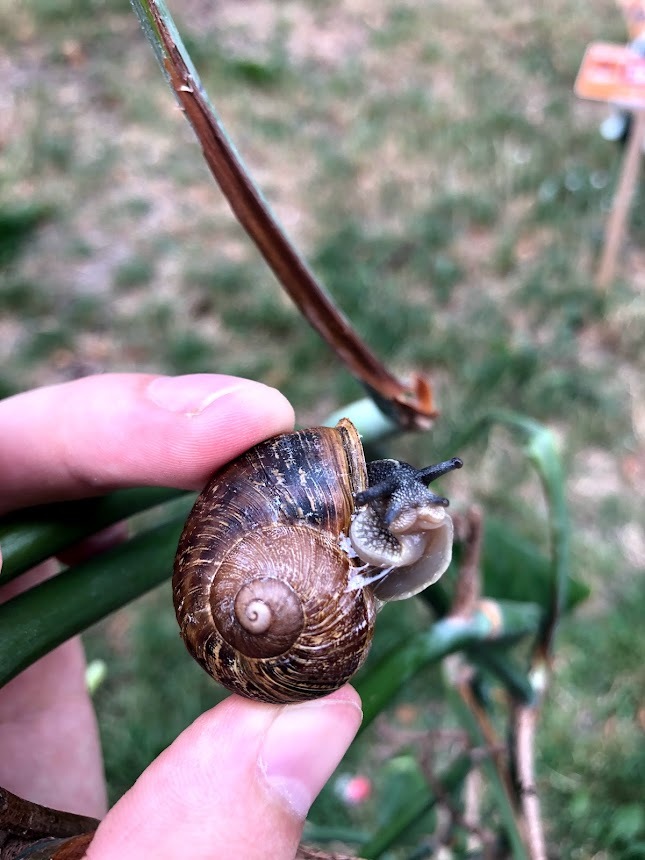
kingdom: Animalia
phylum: Mollusca
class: Gastropoda
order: Stylommatophora
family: Helicidae
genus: Cornu
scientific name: Cornu aspersum
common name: Brown garden snail
